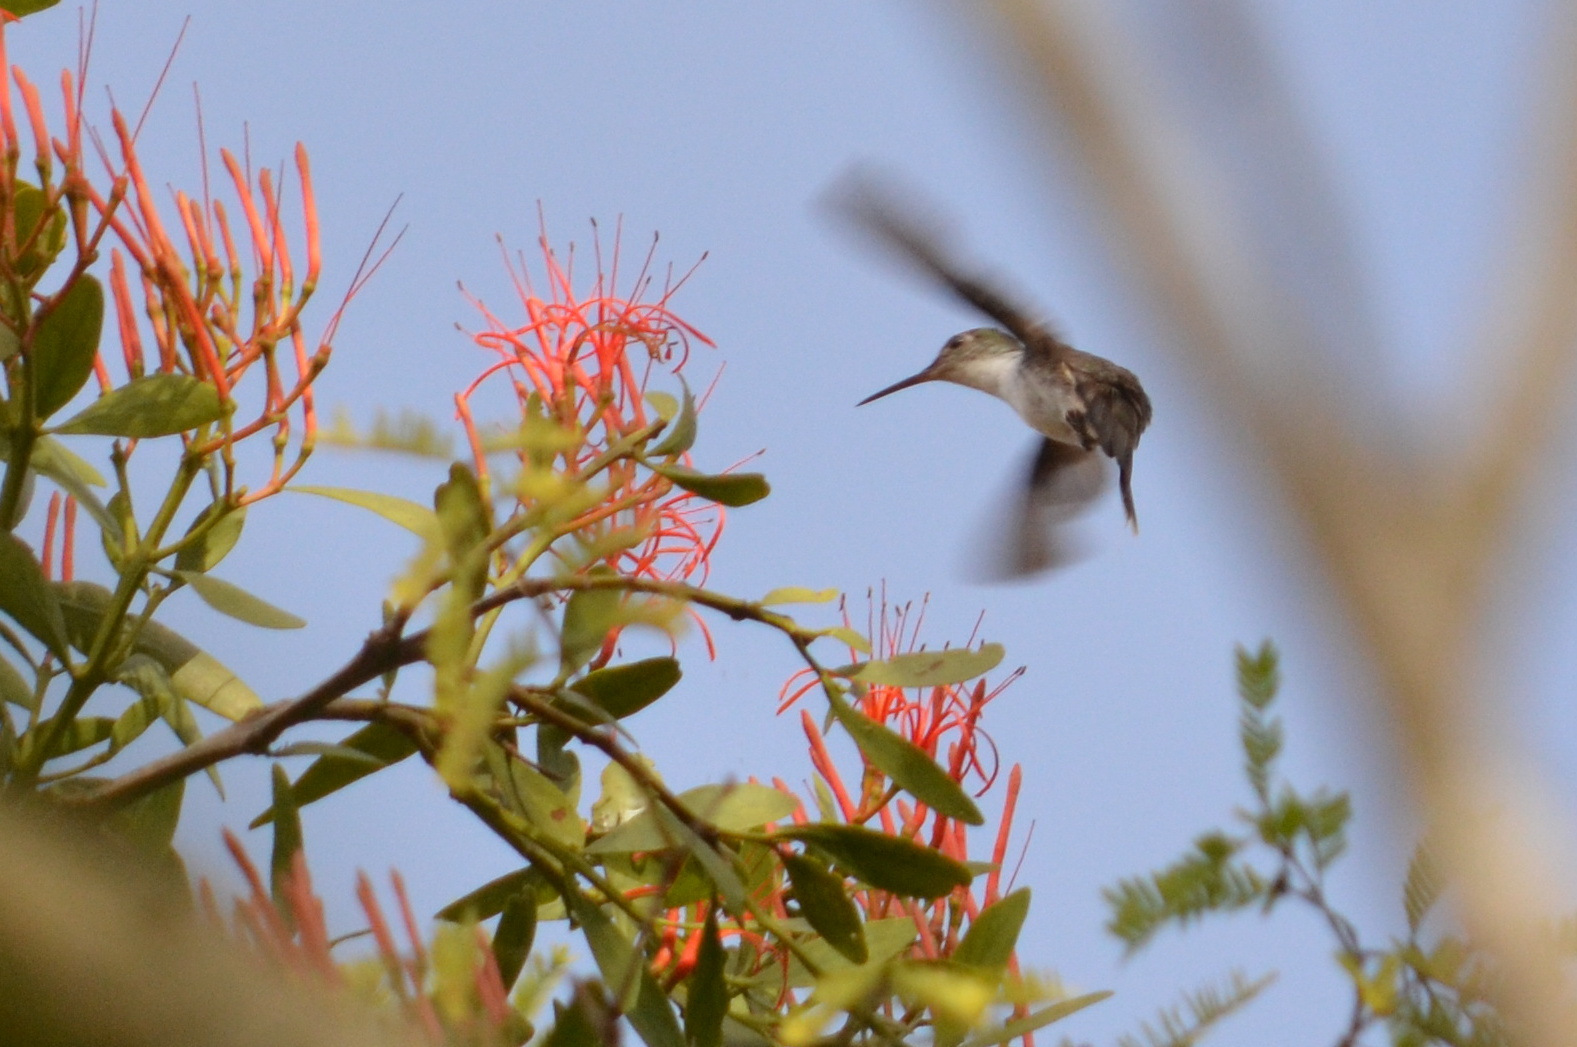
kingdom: Animalia
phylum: Chordata
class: Aves
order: Apodiformes
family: Trochilidae
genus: Chlorestes
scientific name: Chlorestes candida
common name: White-bellied emerald
